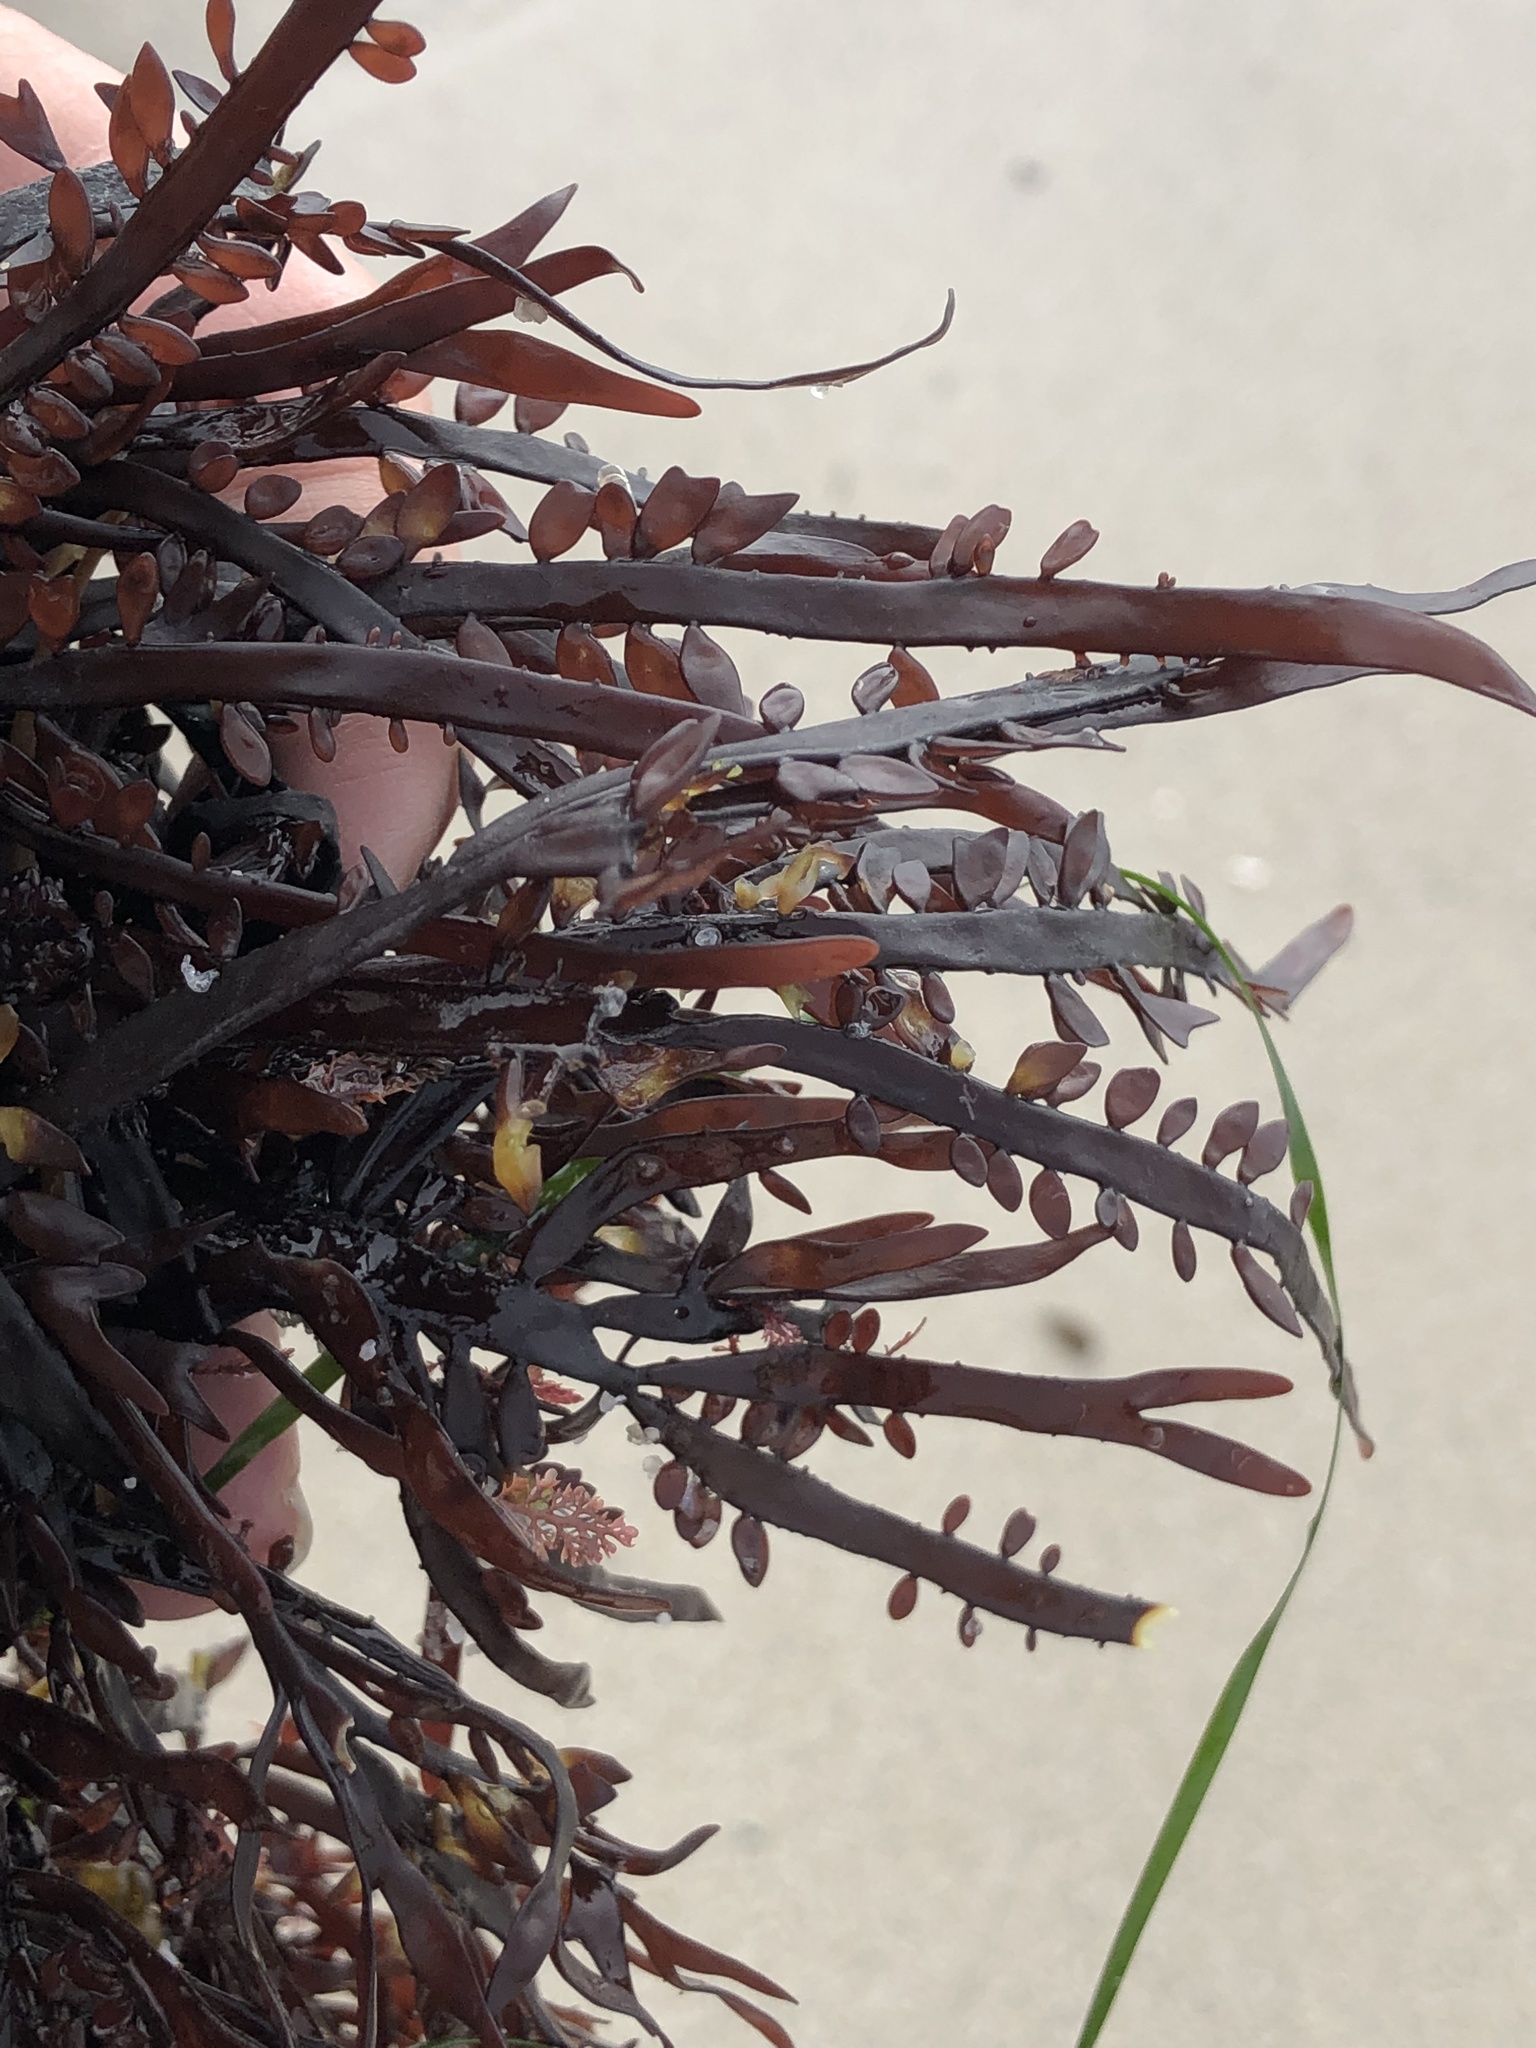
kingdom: Plantae
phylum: Rhodophyta
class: Florideophyceae
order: Halymeniales
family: Halymeniaceae
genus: Grateloupia
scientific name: Grateloupia Prionitis lanceolata
